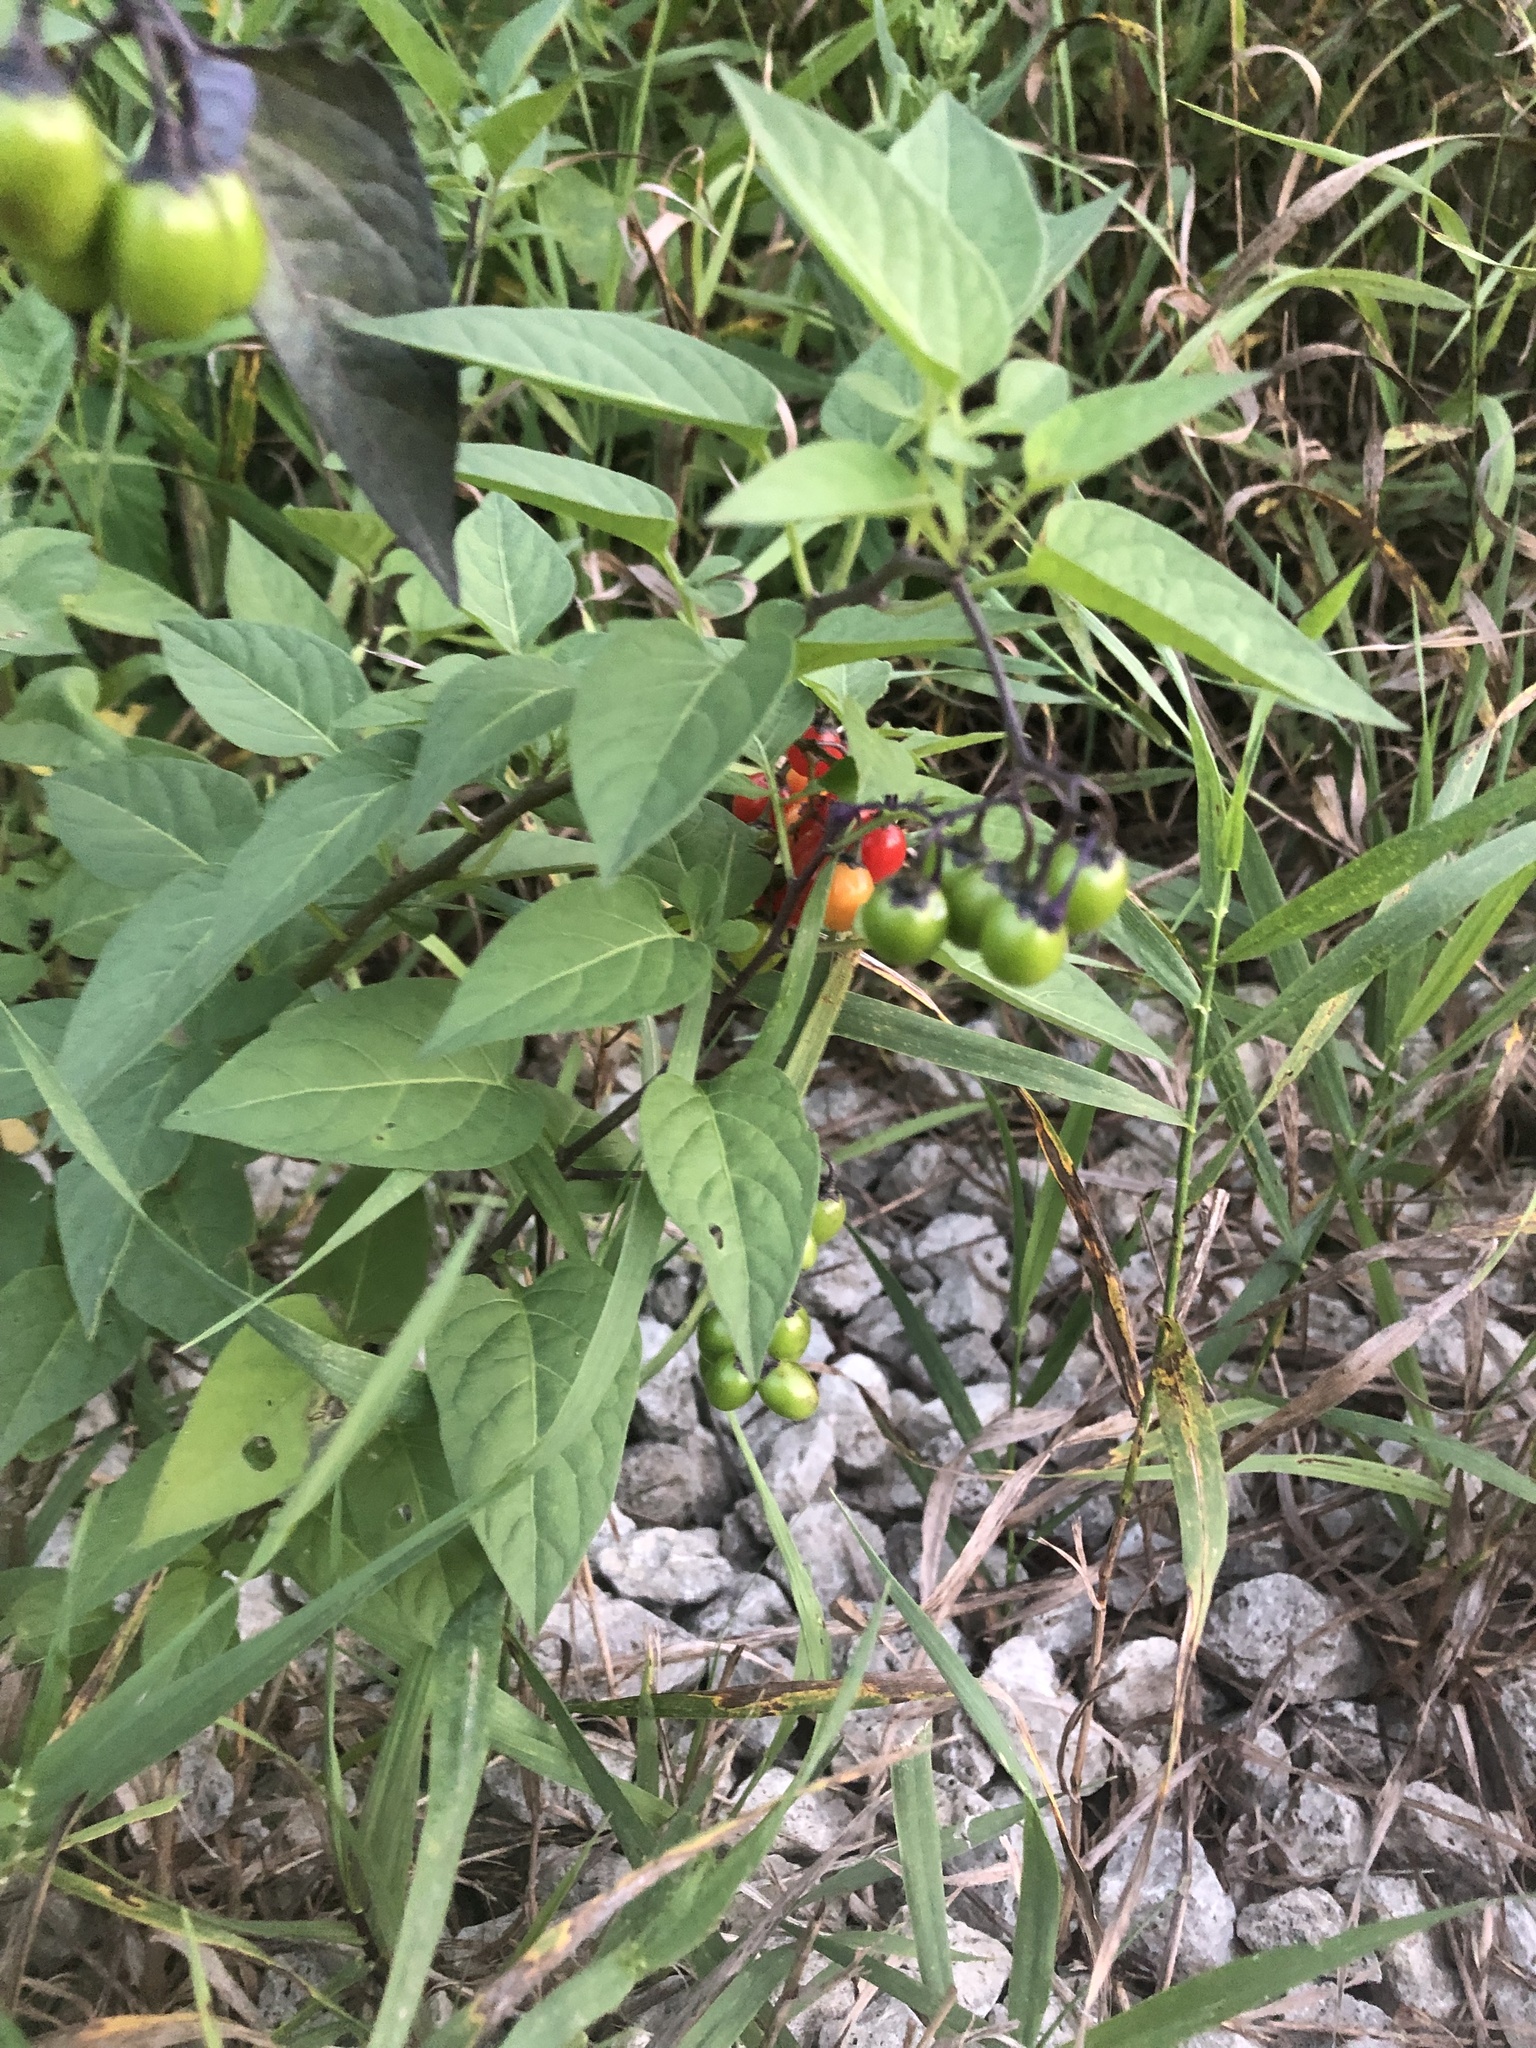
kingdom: Plantae
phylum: Tracheophyta
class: Magnoliopsida
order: Solanales
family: Solanaceae
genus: Solanum
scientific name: Solanum dulcamara
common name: Climbing nightshade
